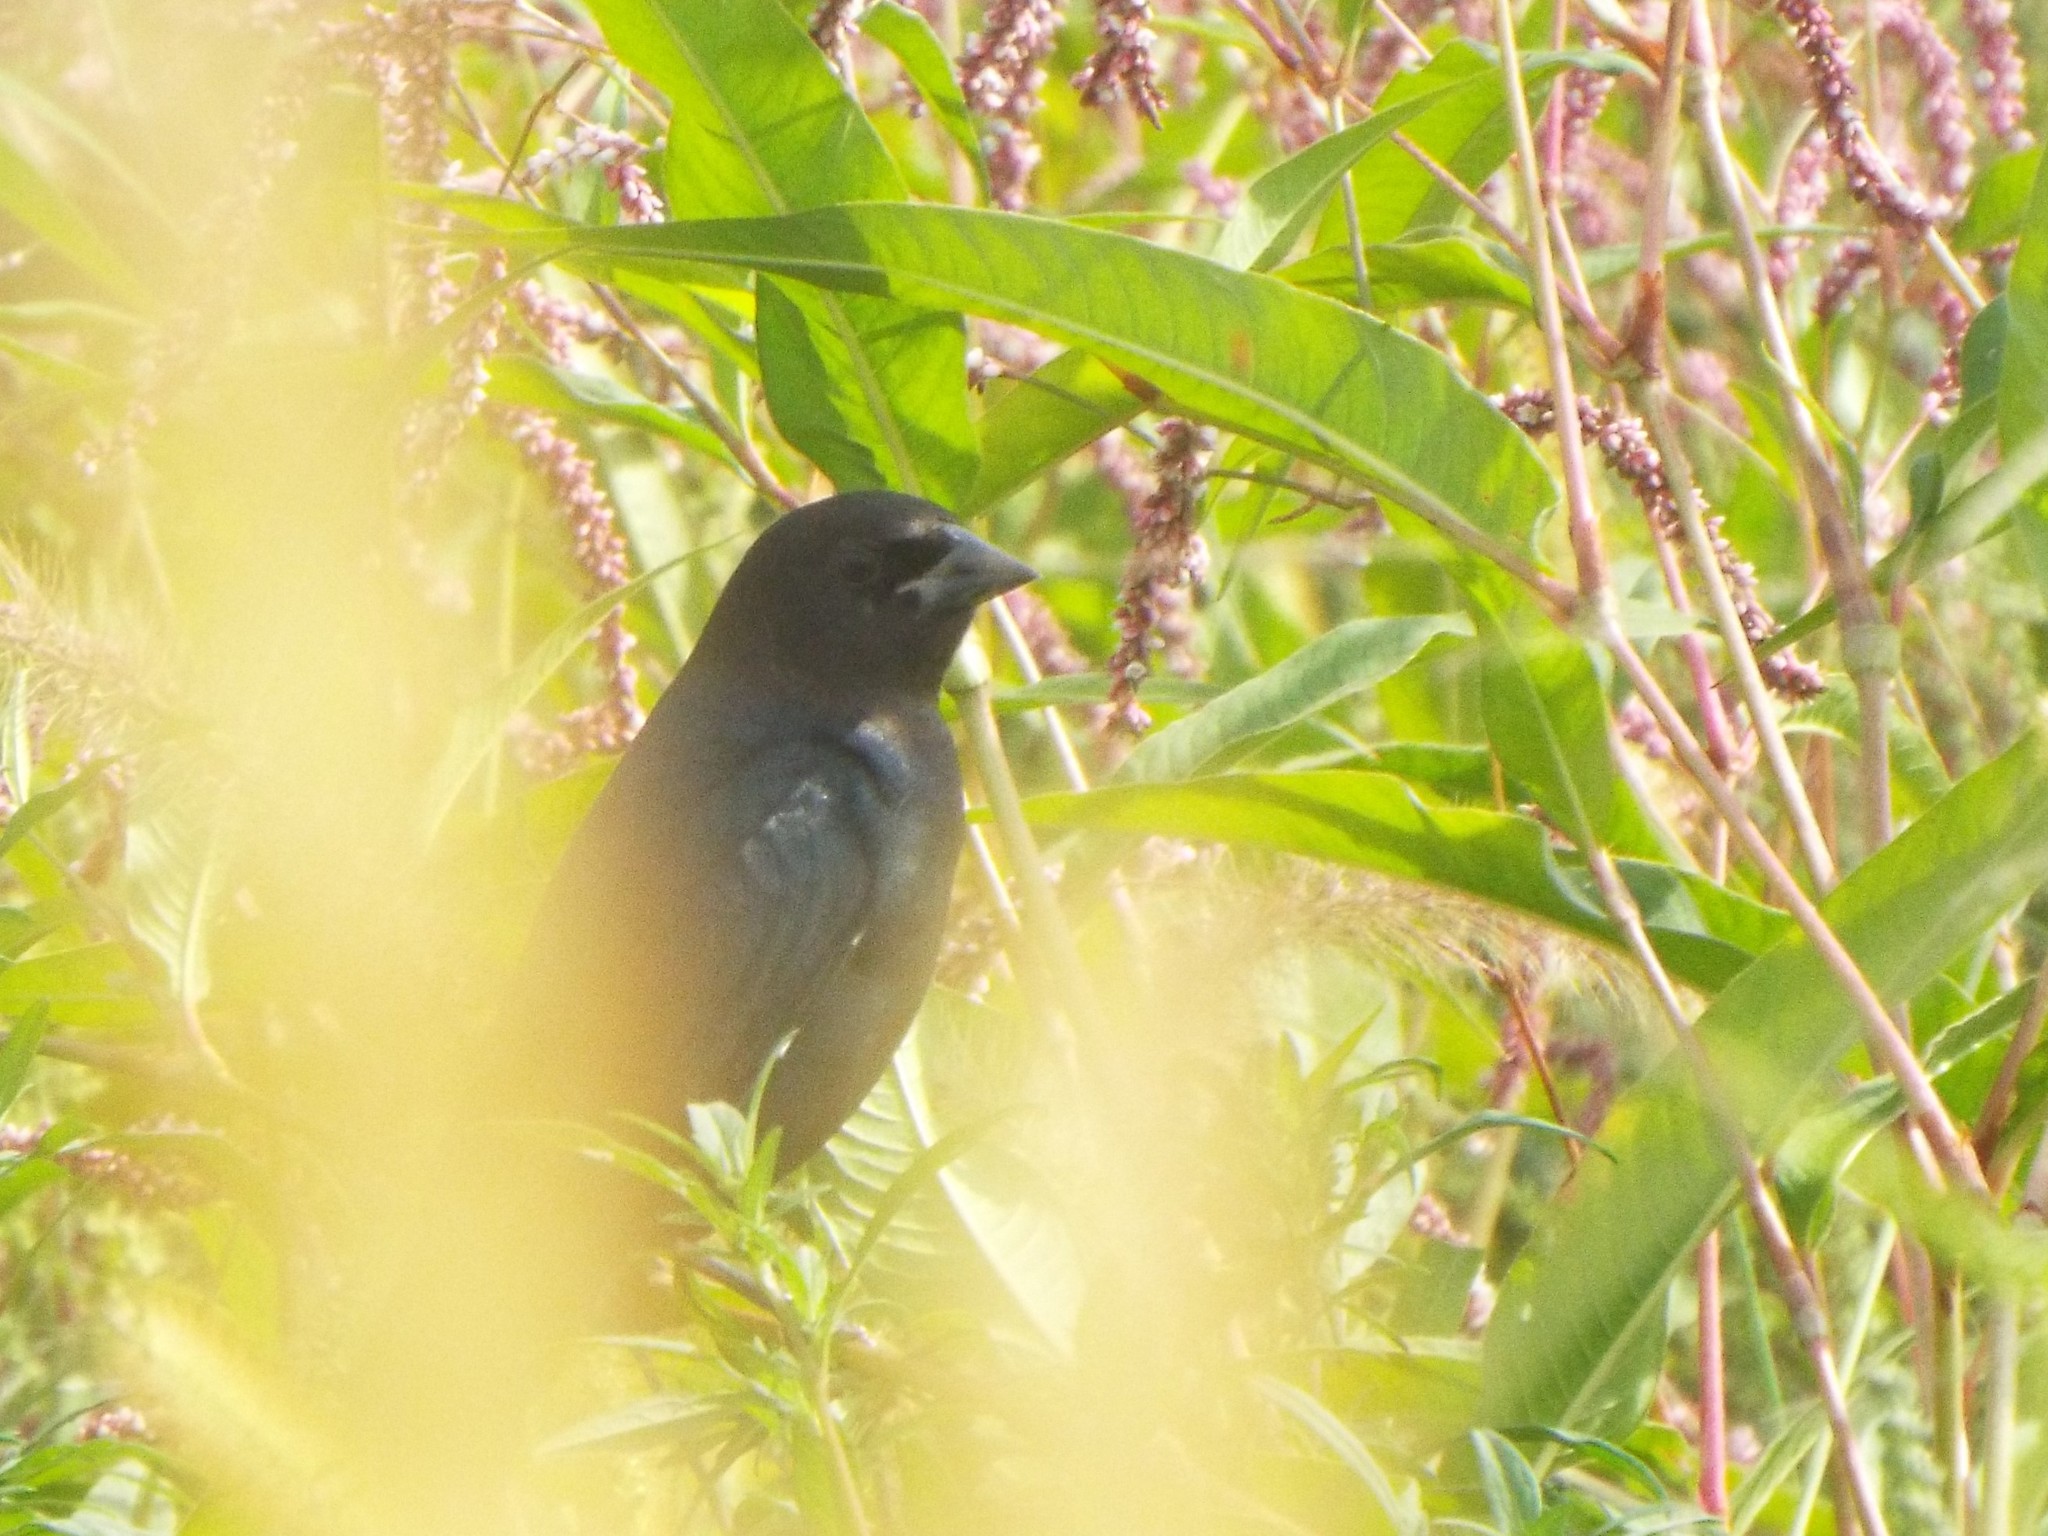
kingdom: Animalia
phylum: Chordata
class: Aves
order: Passeriformes
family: Icteridae
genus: Molothrus
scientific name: Molothrus ater
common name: Brown-headed cowbird
